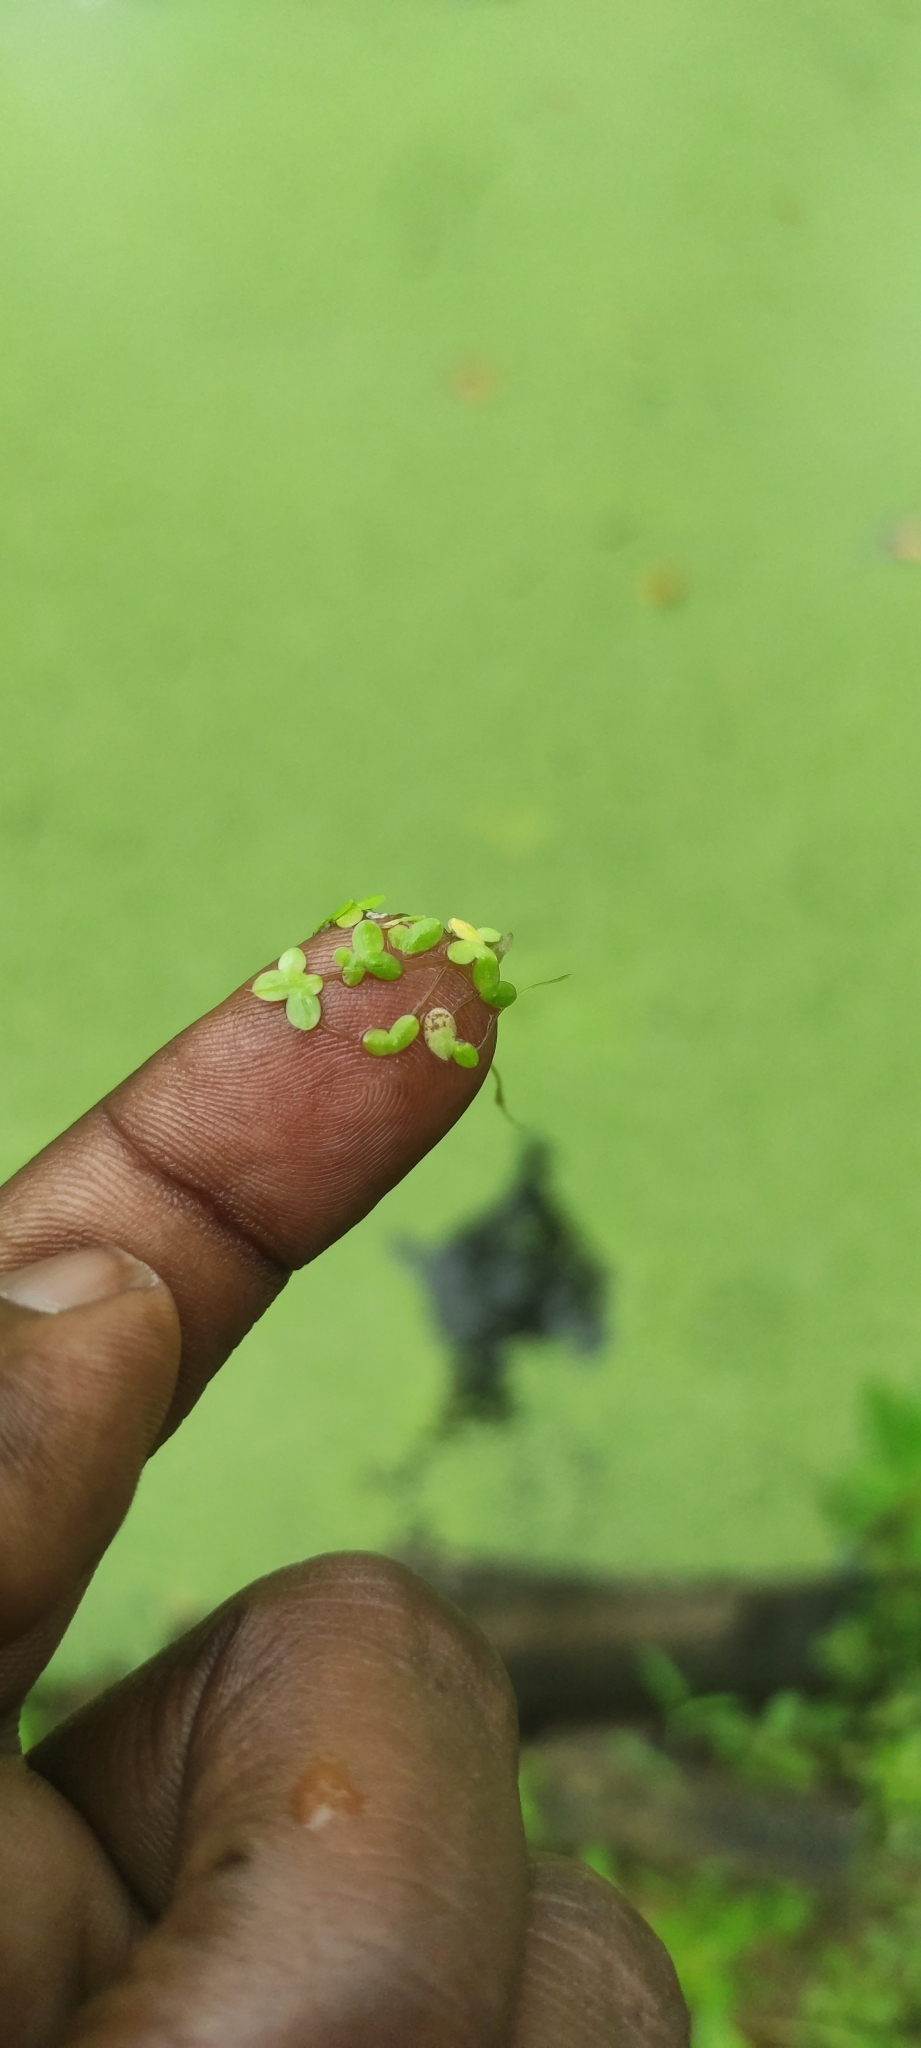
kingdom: Plantae
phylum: Tracheophyta
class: Liliopsida
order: Alismatales
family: Araceae
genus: Lemna
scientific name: Lemna minor
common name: Common duckweed
